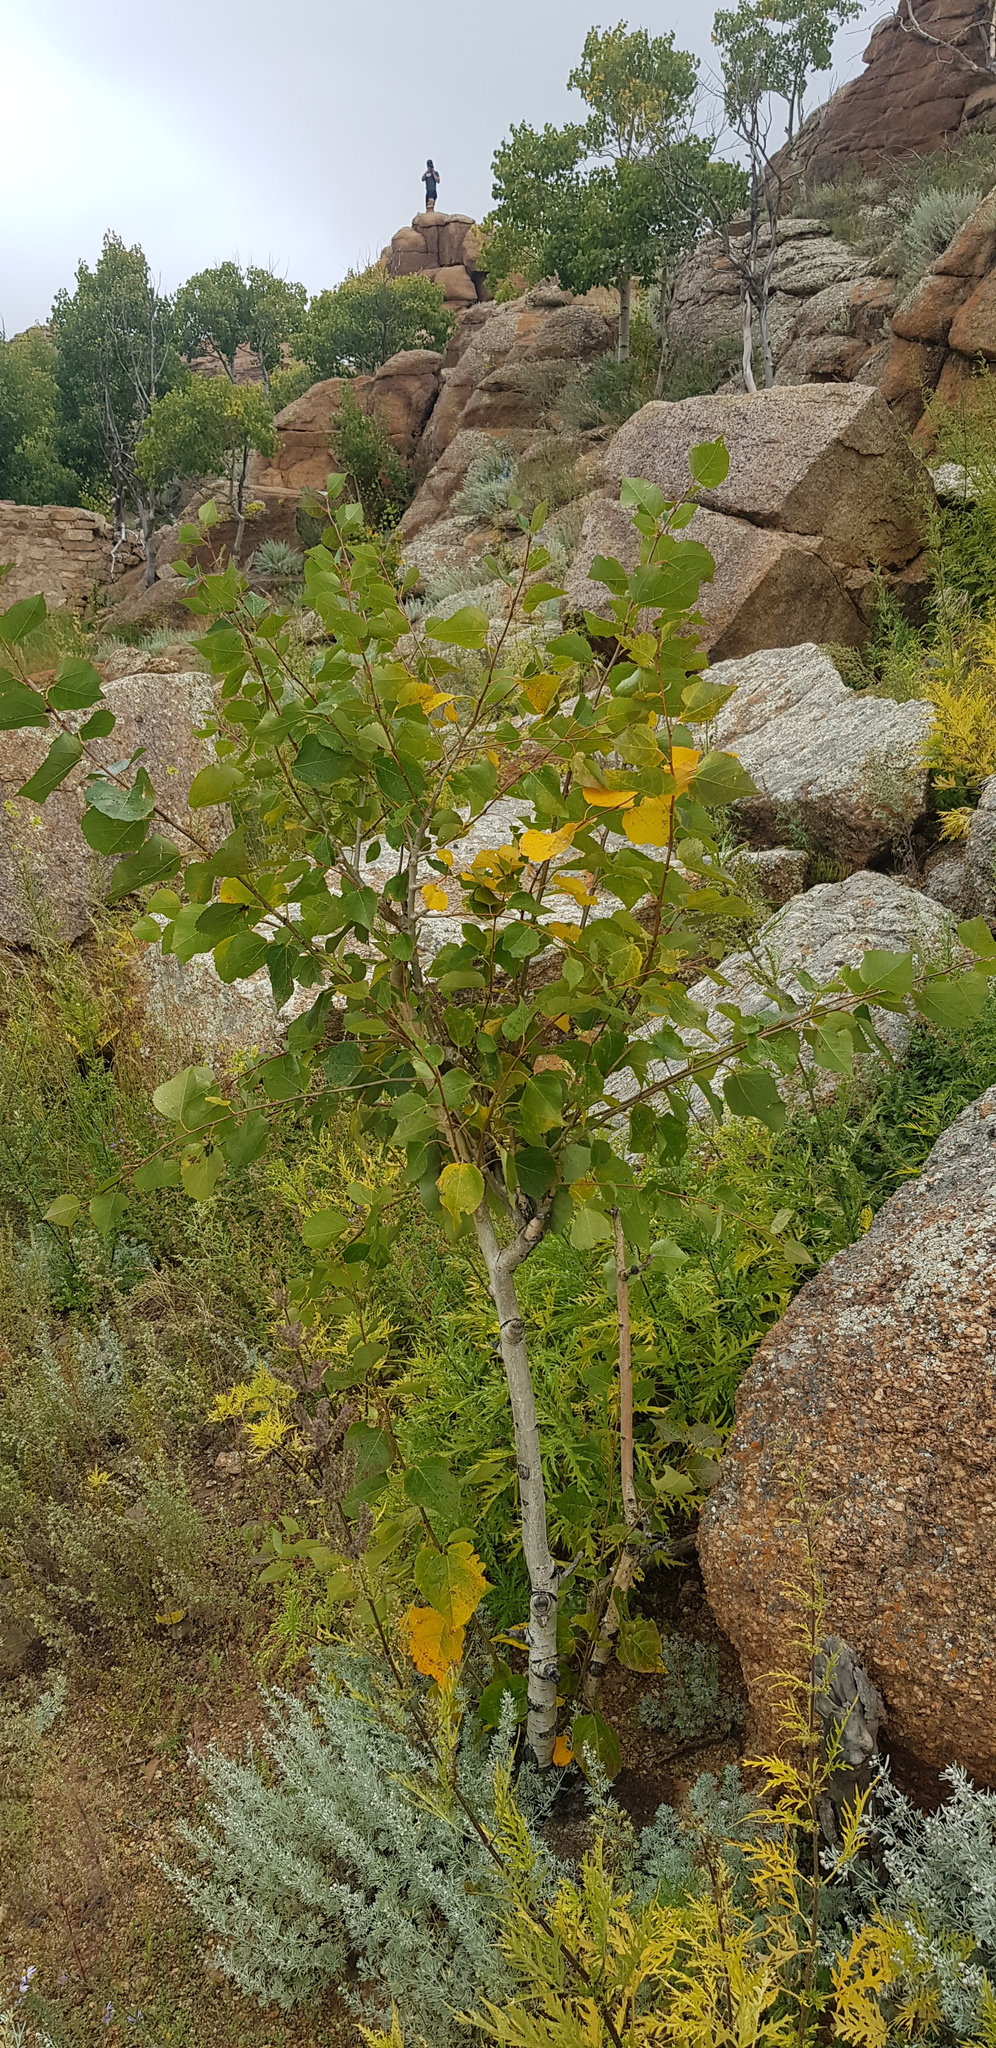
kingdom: Plantae
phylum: Tracheophyta
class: Magnoliopsida
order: Fagales
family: Betulaceae
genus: Betula
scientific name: Betula pendula
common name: Silver birch
